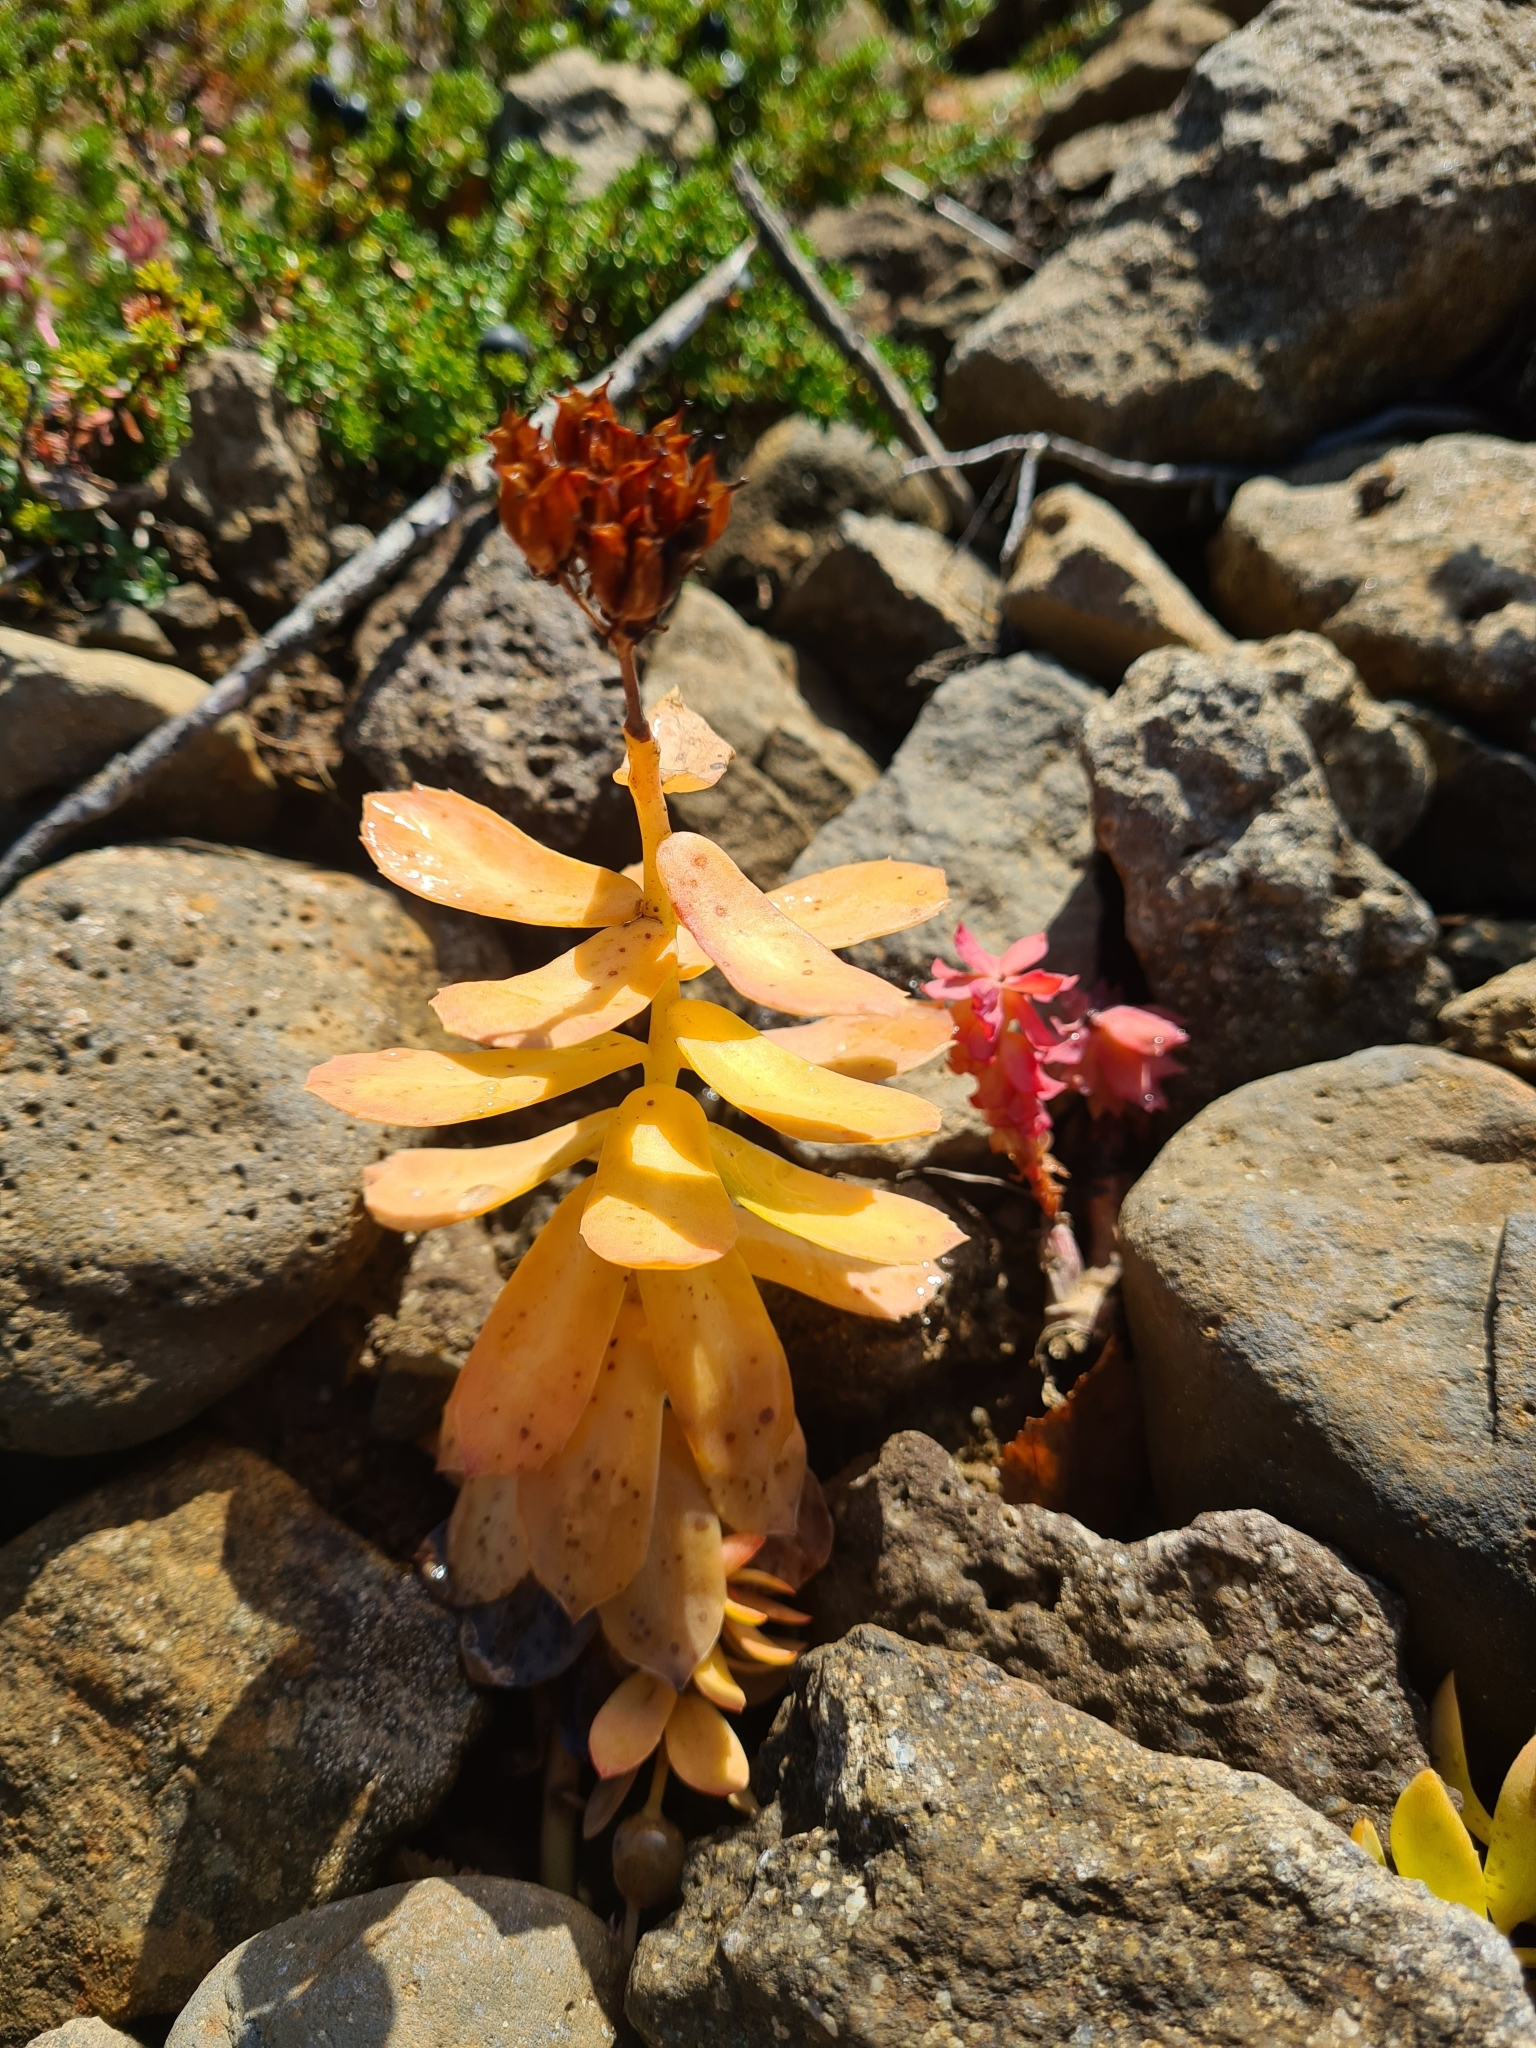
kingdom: Plantae
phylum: Tracheophyta
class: Magnoliopsida
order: Saxifragales
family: Crassulaceae
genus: Rhodiola
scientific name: Rhodiola rosea
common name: Roseroot
